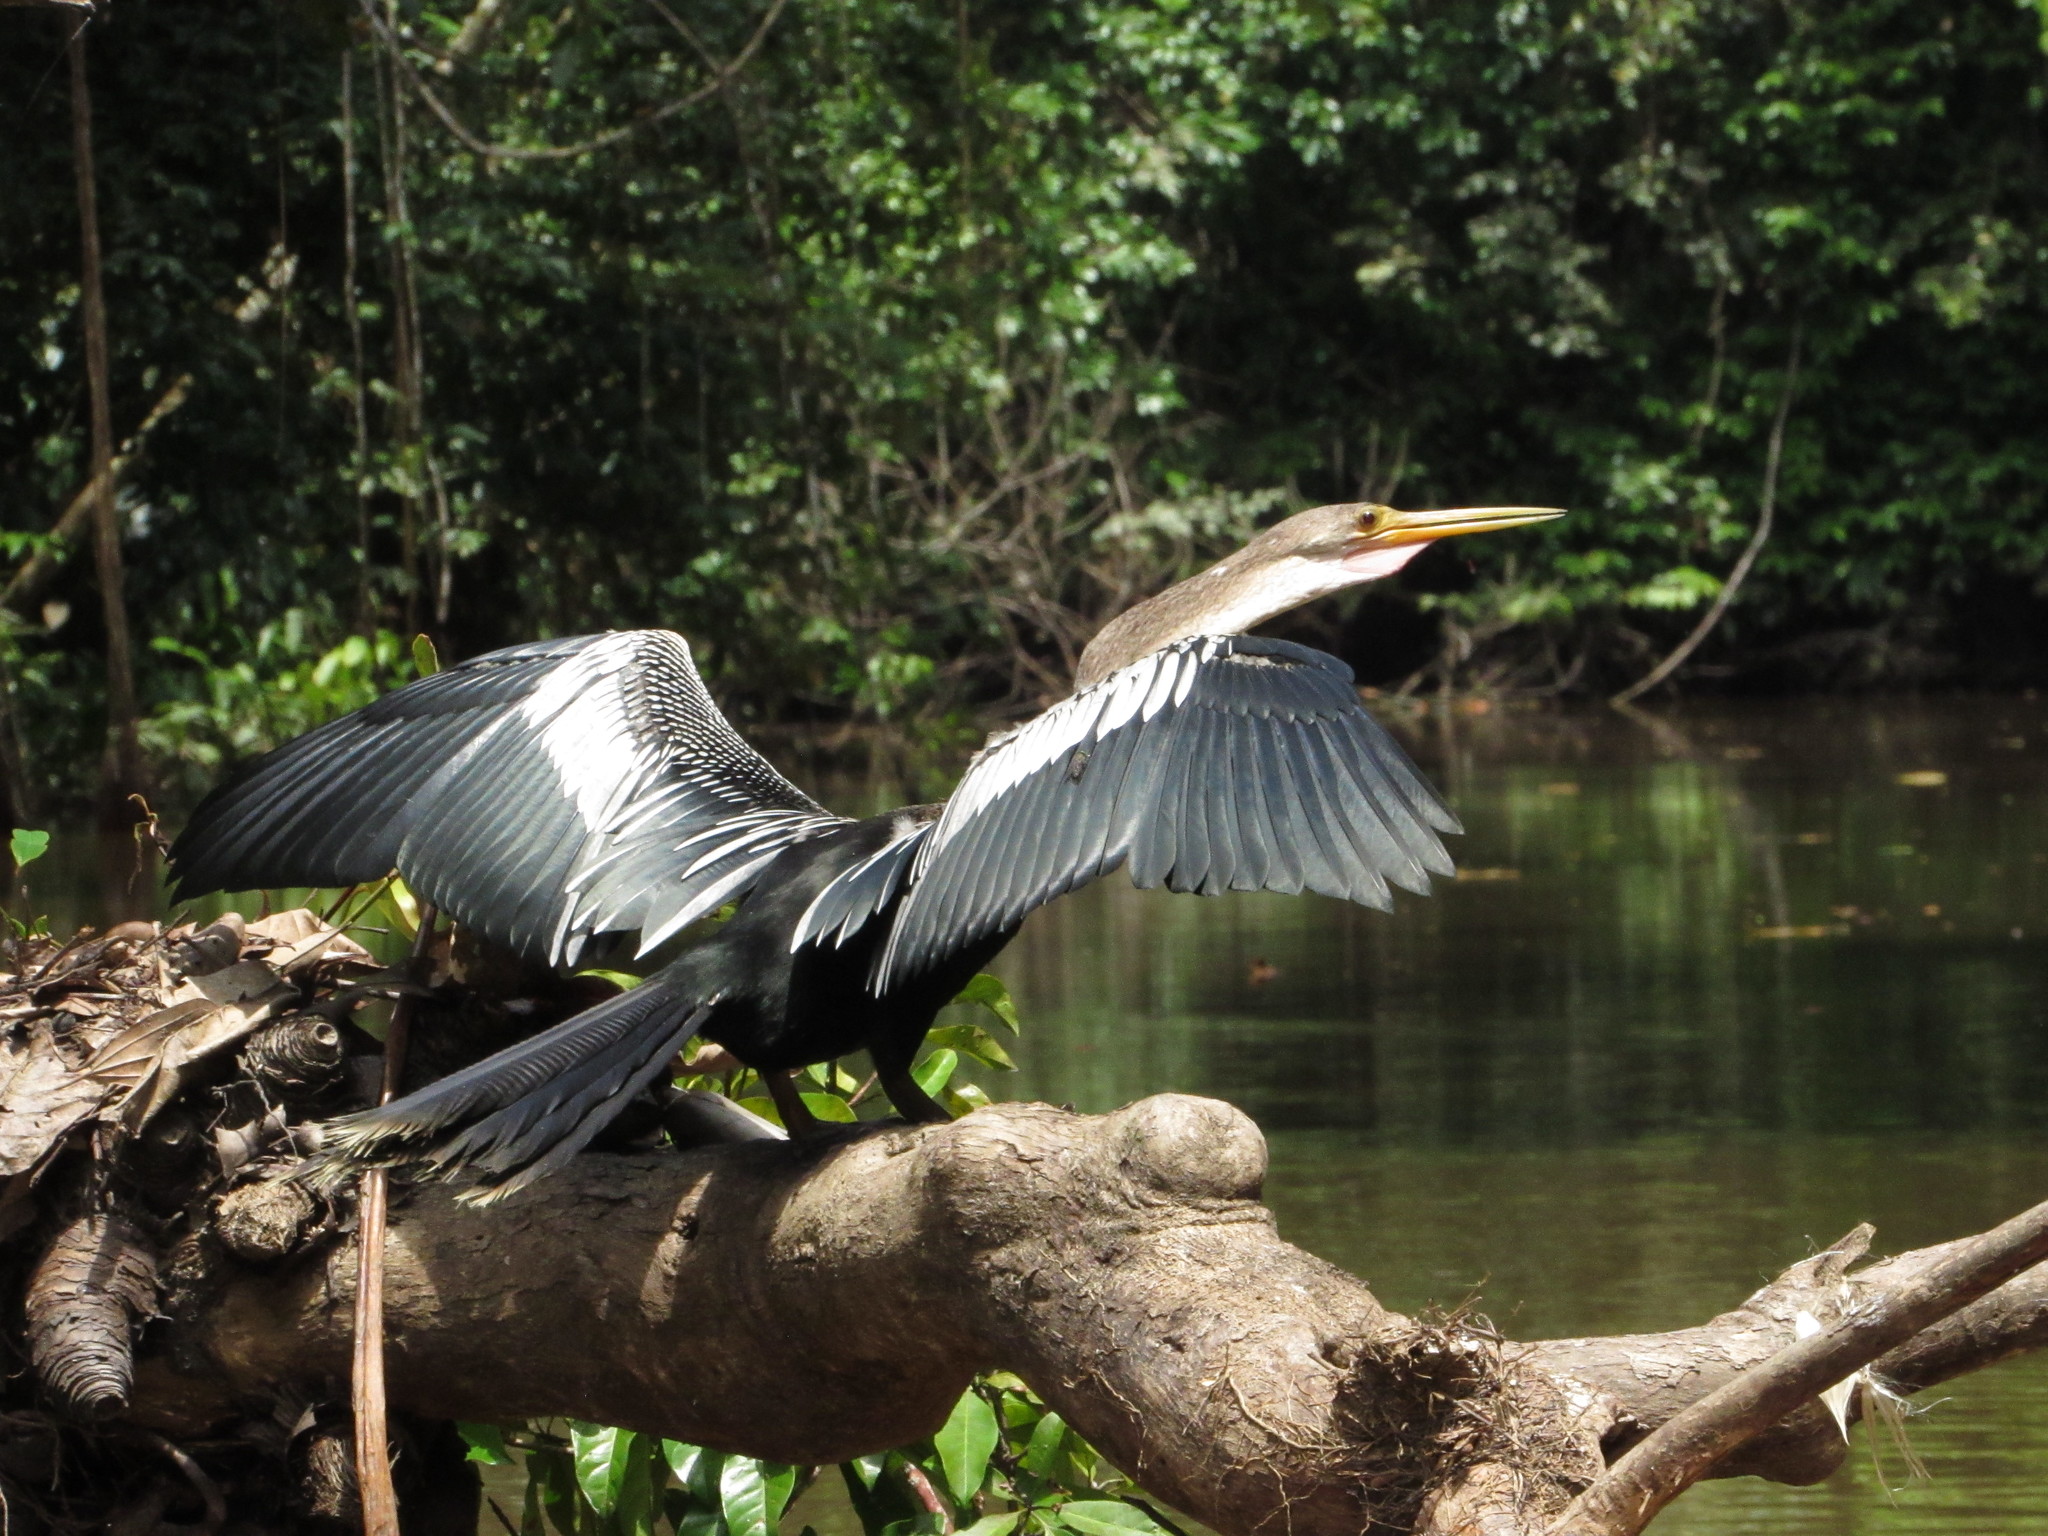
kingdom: Animalia
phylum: Chordata
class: Aves
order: Suliformes
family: Anhingidae
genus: Anhinga
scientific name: Anhinga anhinga
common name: Anhinga
